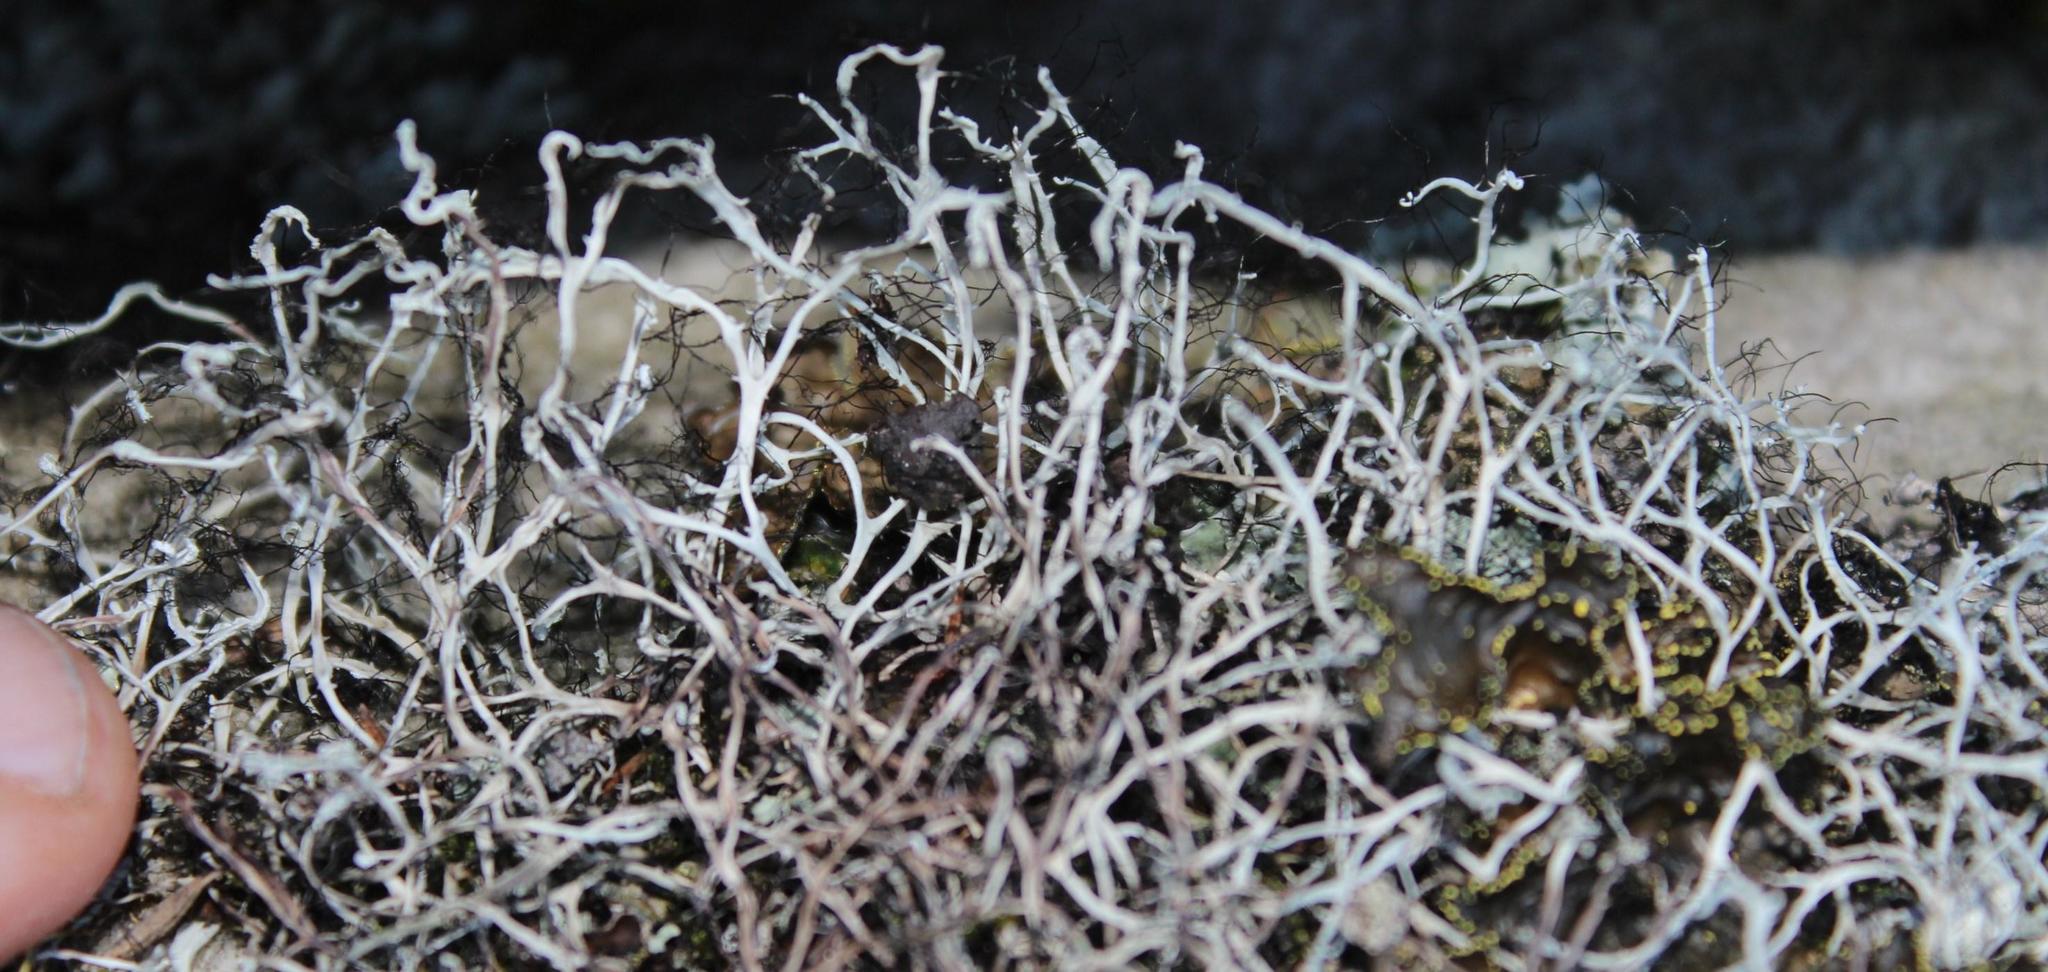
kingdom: Fungi
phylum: Ascomycota
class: Lecanoromycetes
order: Caliciales
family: Physciaceae
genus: Leucodermia
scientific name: Leucodermia leucomelos
